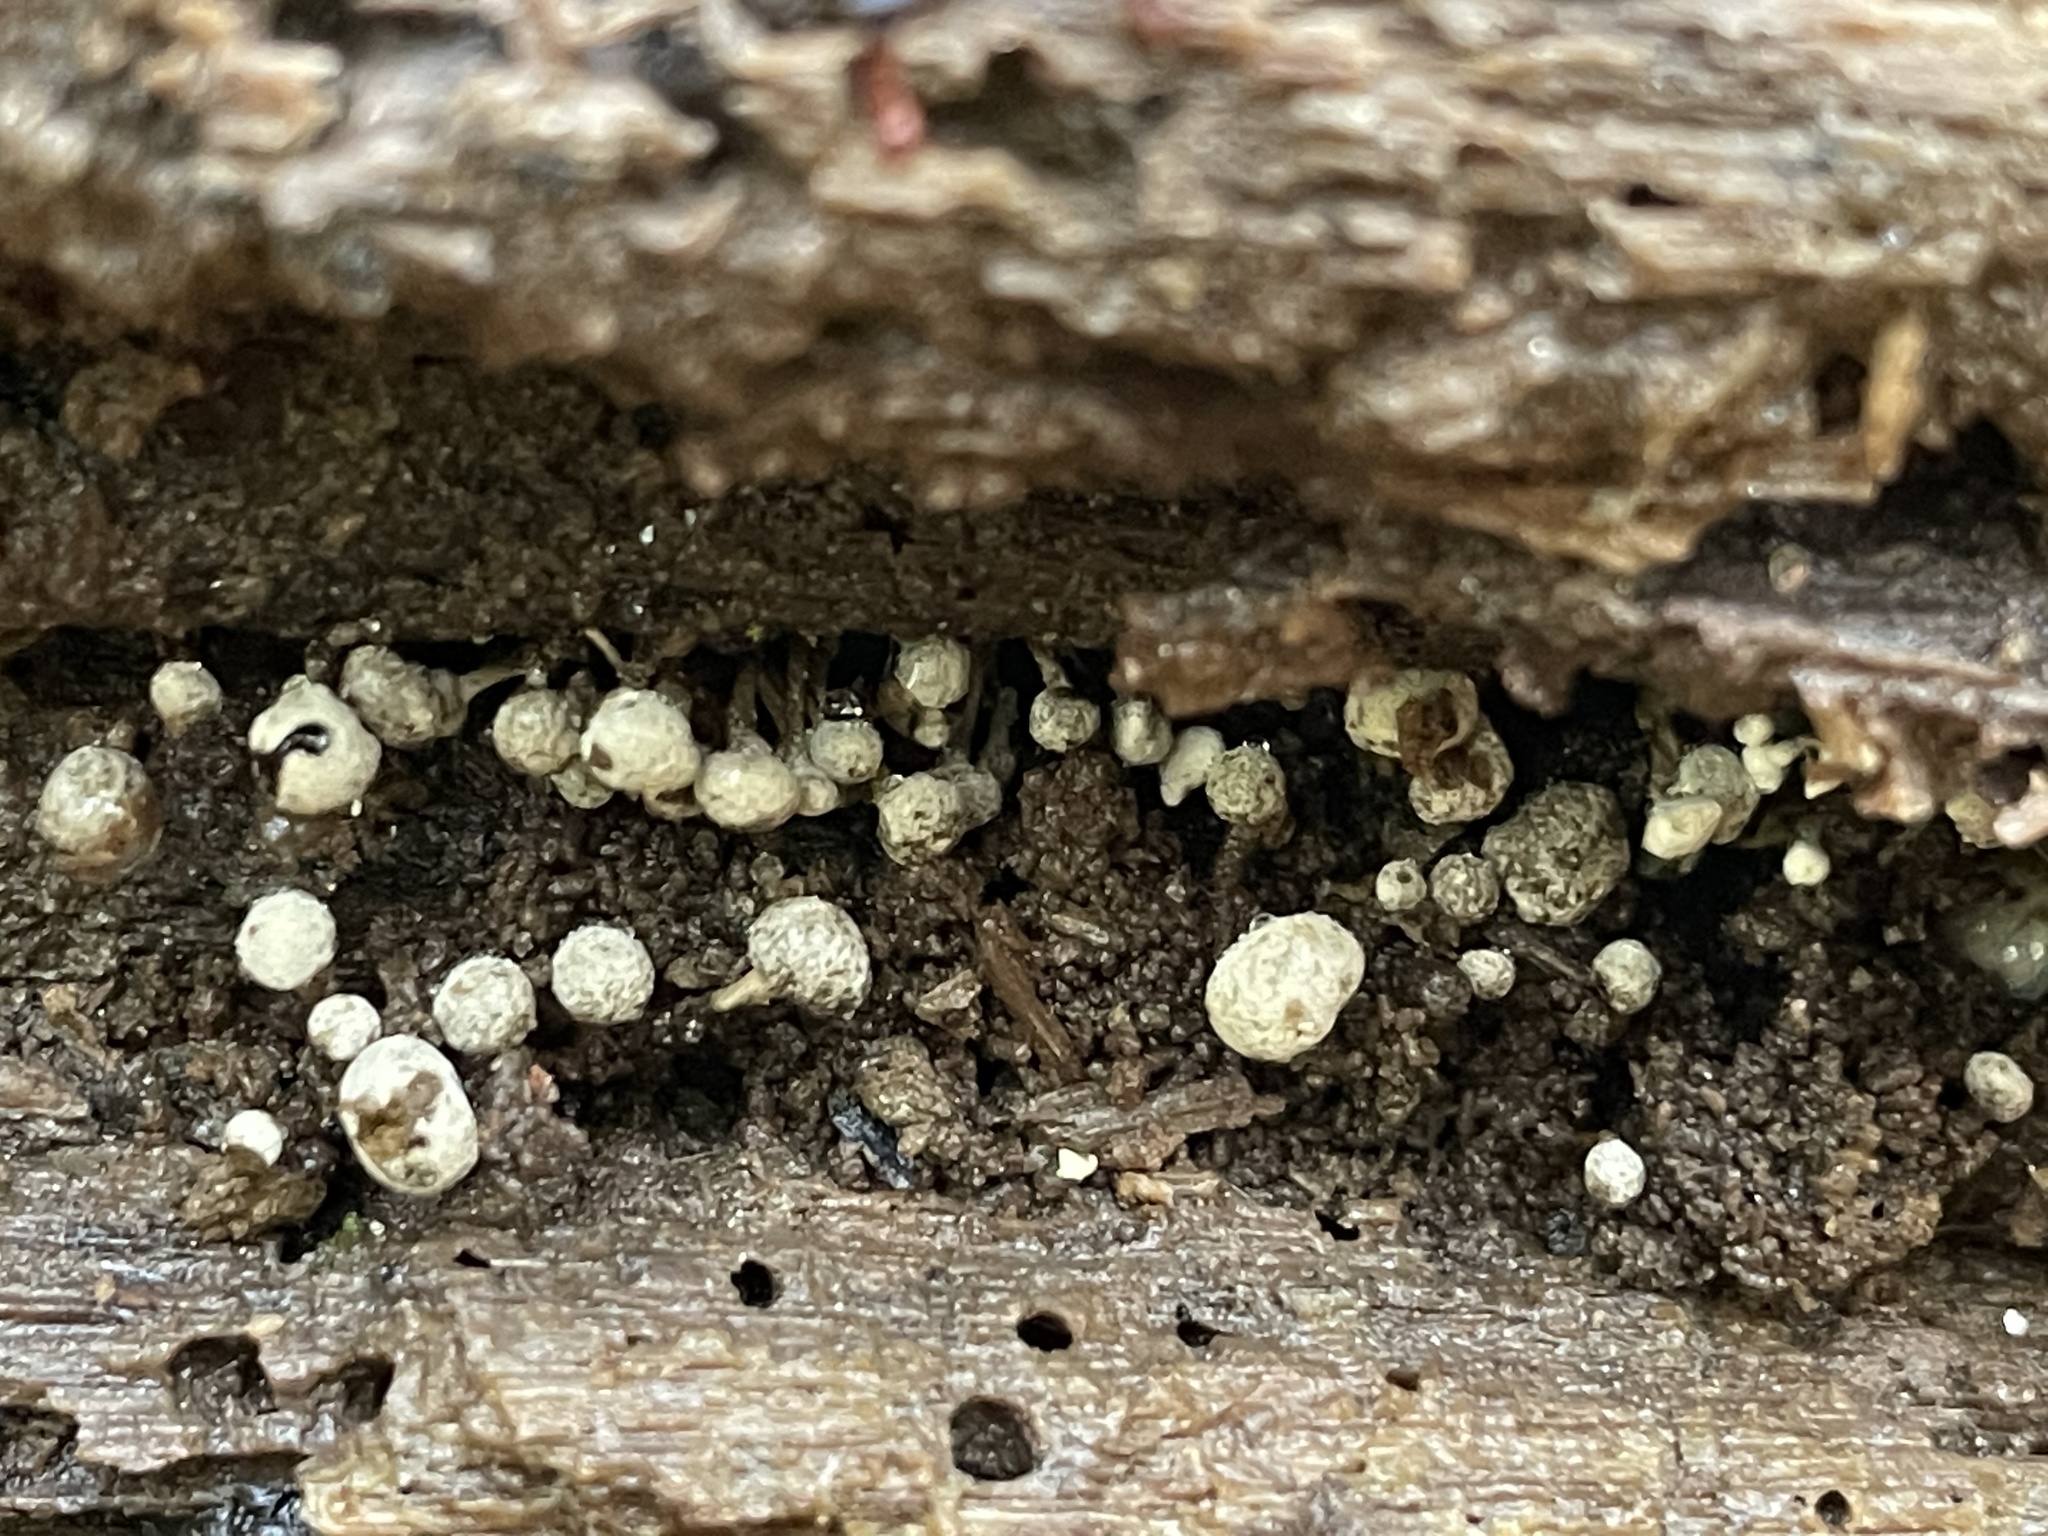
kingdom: Fungi
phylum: Basidiomycota
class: Atractiellomycetes
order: Atractiellales
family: Phleogenaceae
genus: Phleogena
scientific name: Phleogena faginea
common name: Fenugreek stalkball
